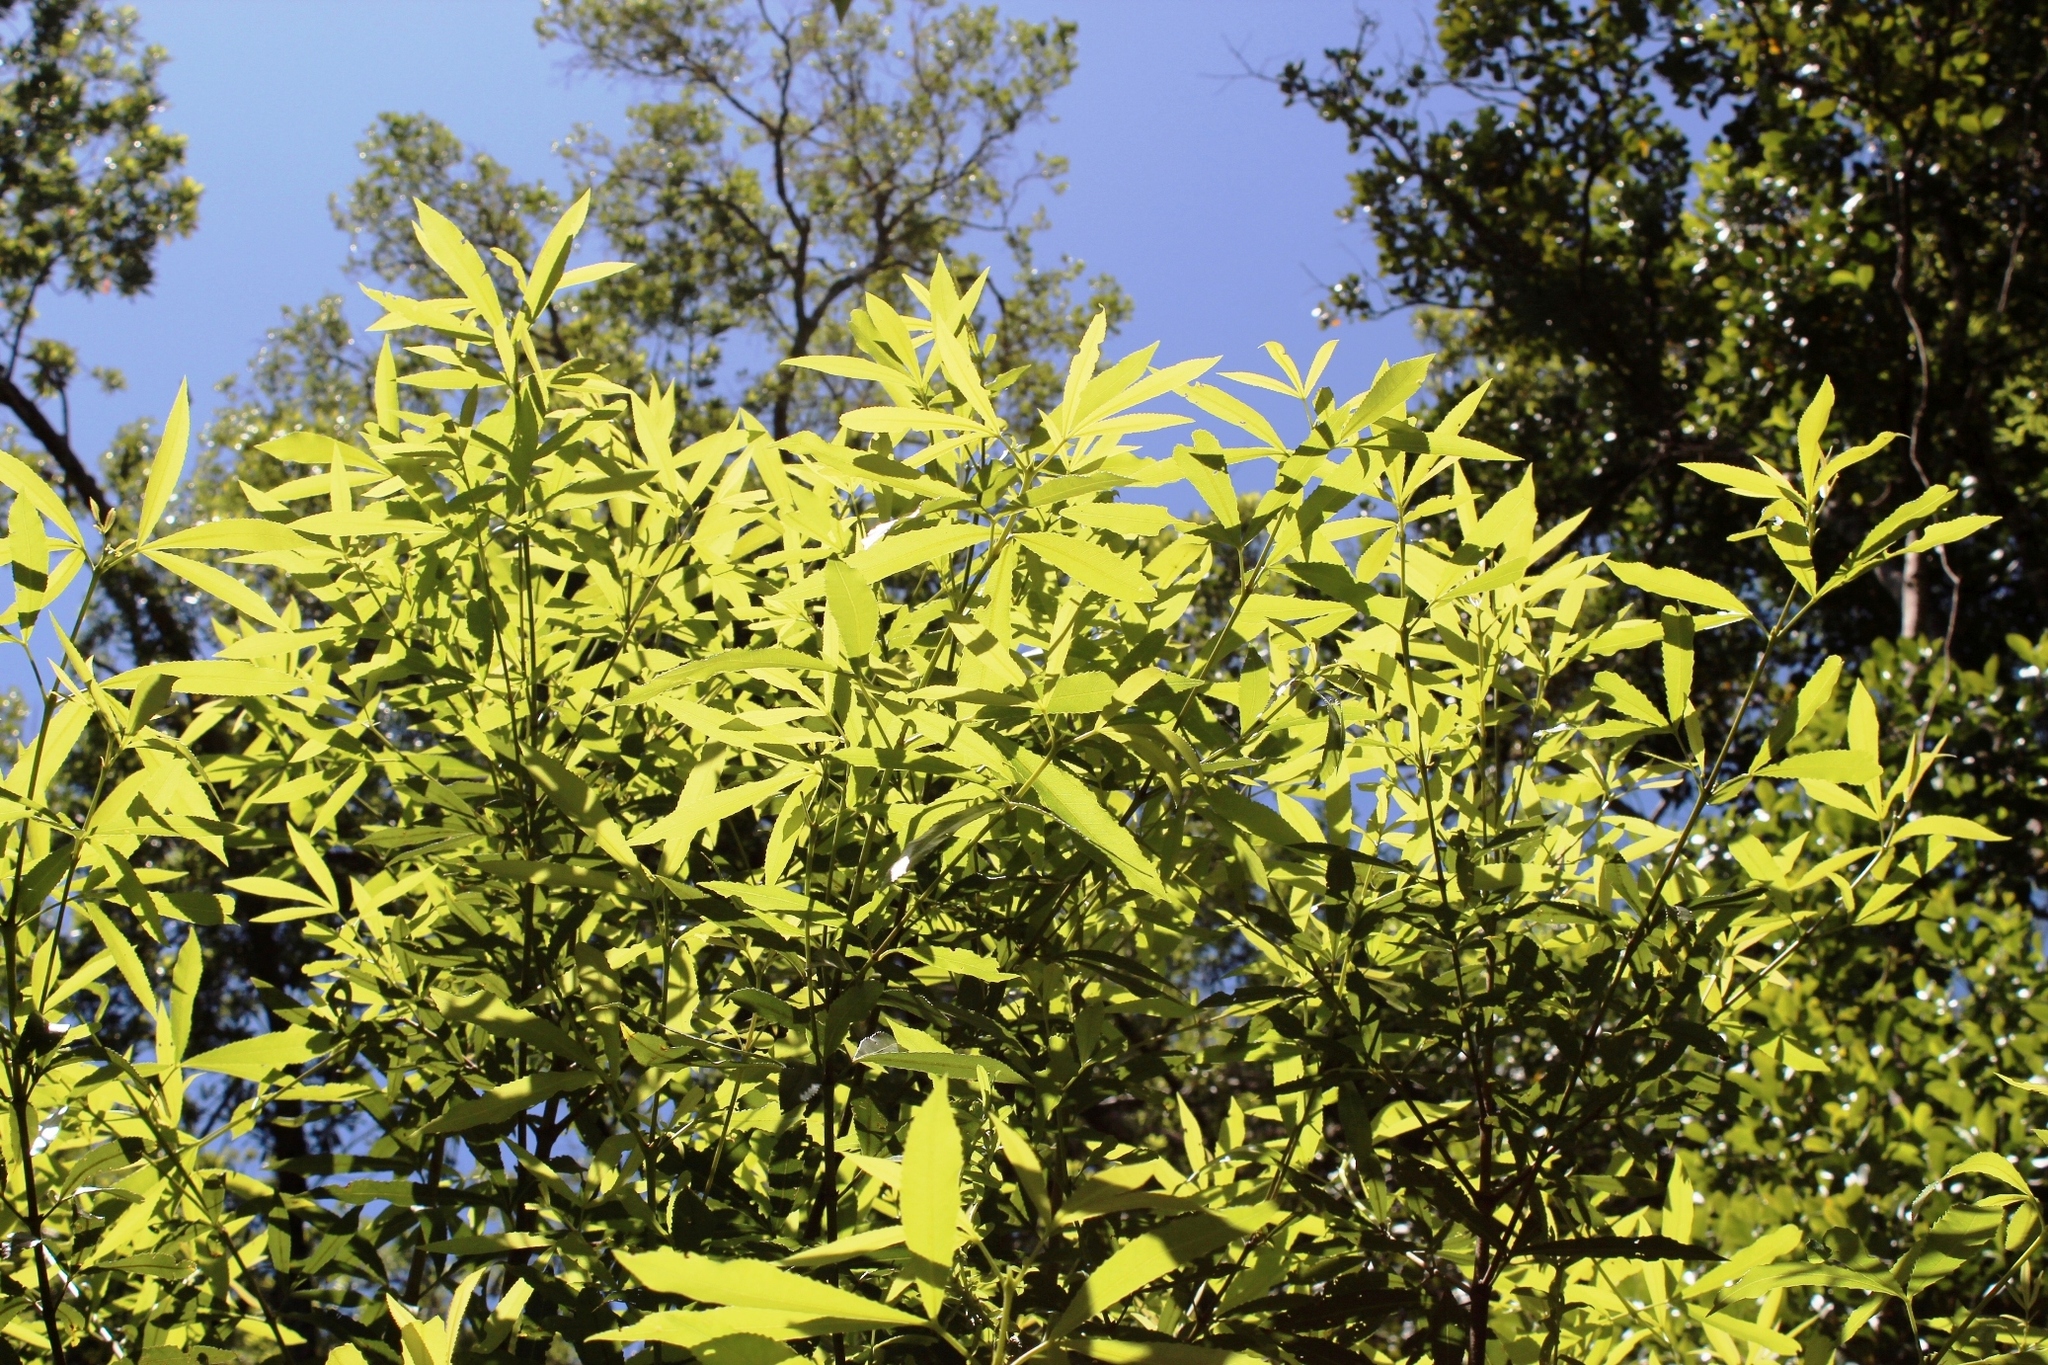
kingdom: Plantae
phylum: Tracheophyta
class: Magnoliopsida
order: Oxalidales
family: Cunoniaceae
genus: Platylophus
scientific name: Platylophus trifoliatus
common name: White alder
